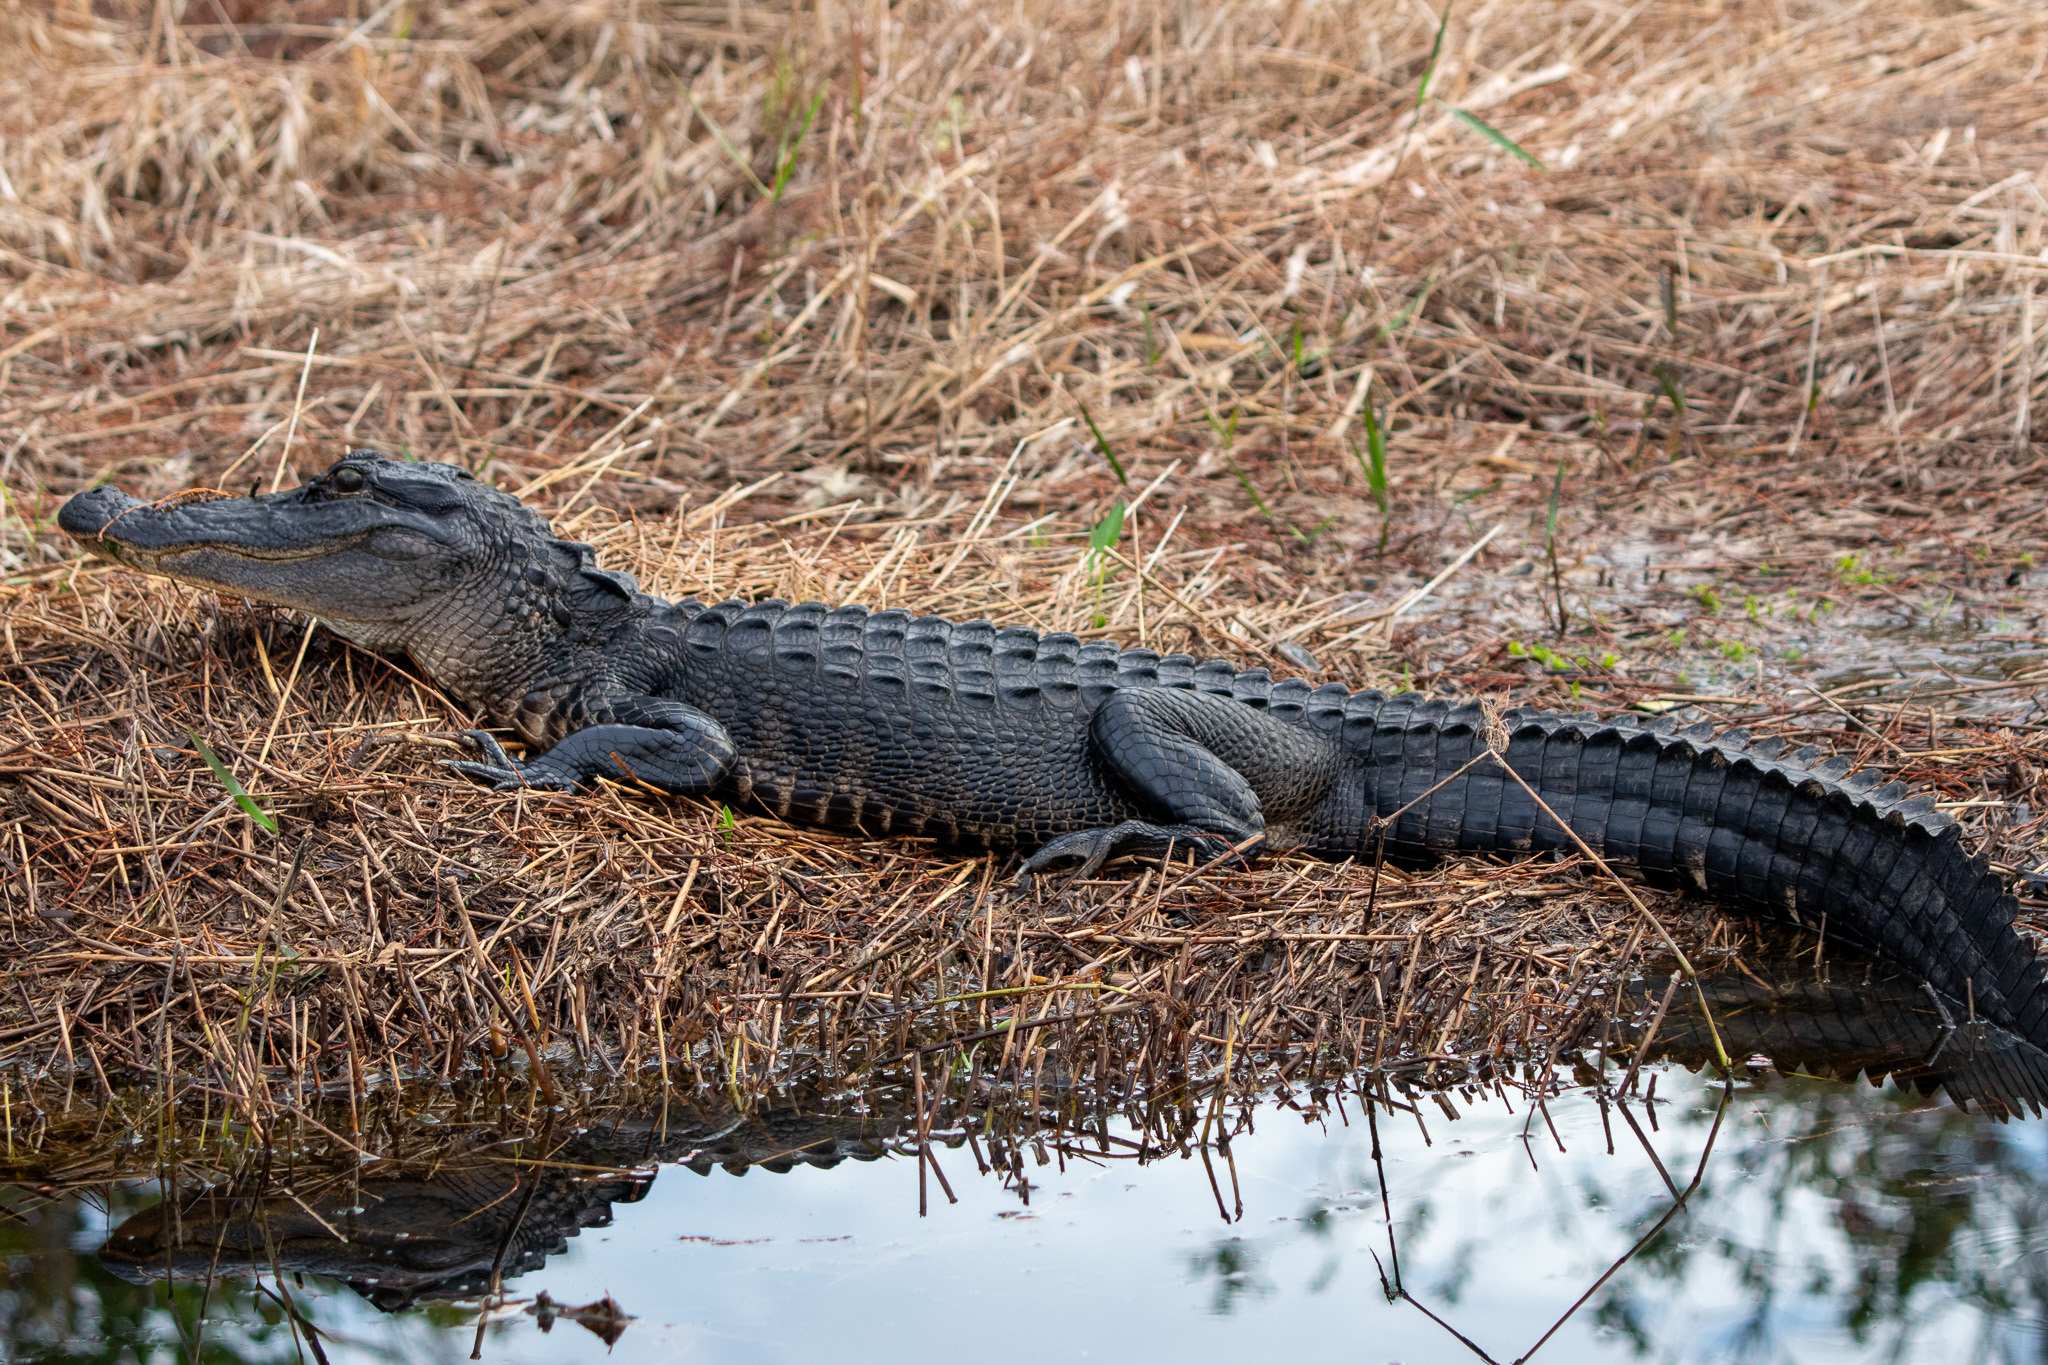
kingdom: Animalia
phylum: Chordata
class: Crocodylia
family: Alligatoridae
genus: Alligator
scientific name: Alligator mississippiensis
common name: American alligator
